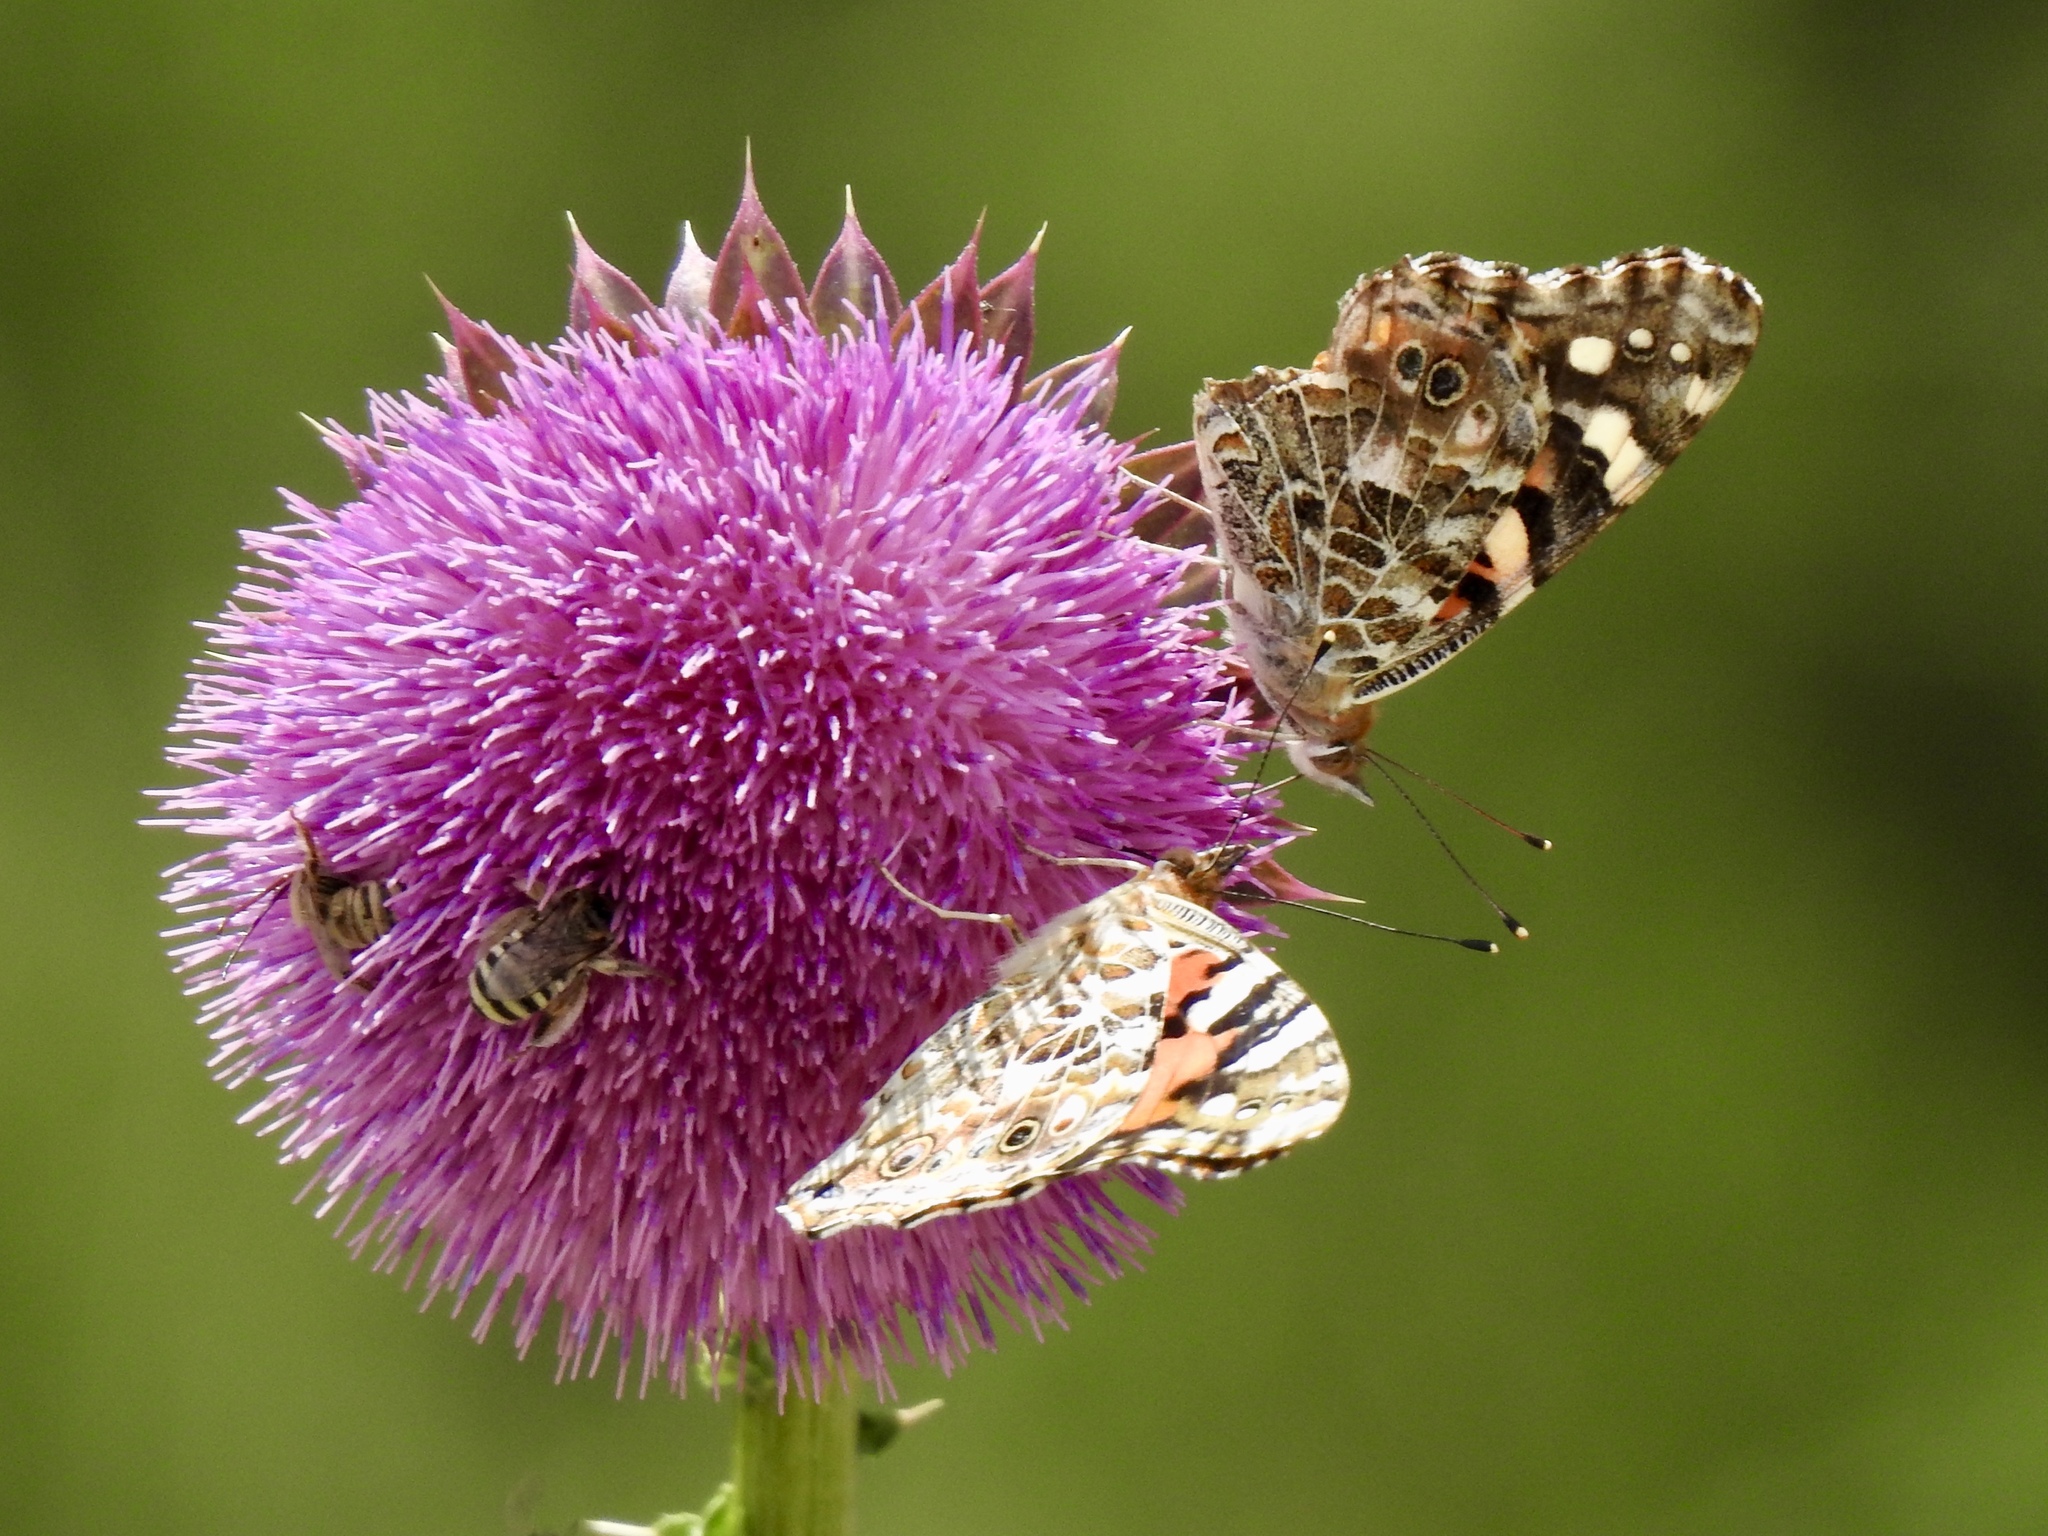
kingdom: Animalia
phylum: Arthropoda
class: Insecta
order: Lepidoptera
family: Nymphalidae
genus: Vanessa
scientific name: Vanessa cardui
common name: Painted lady
